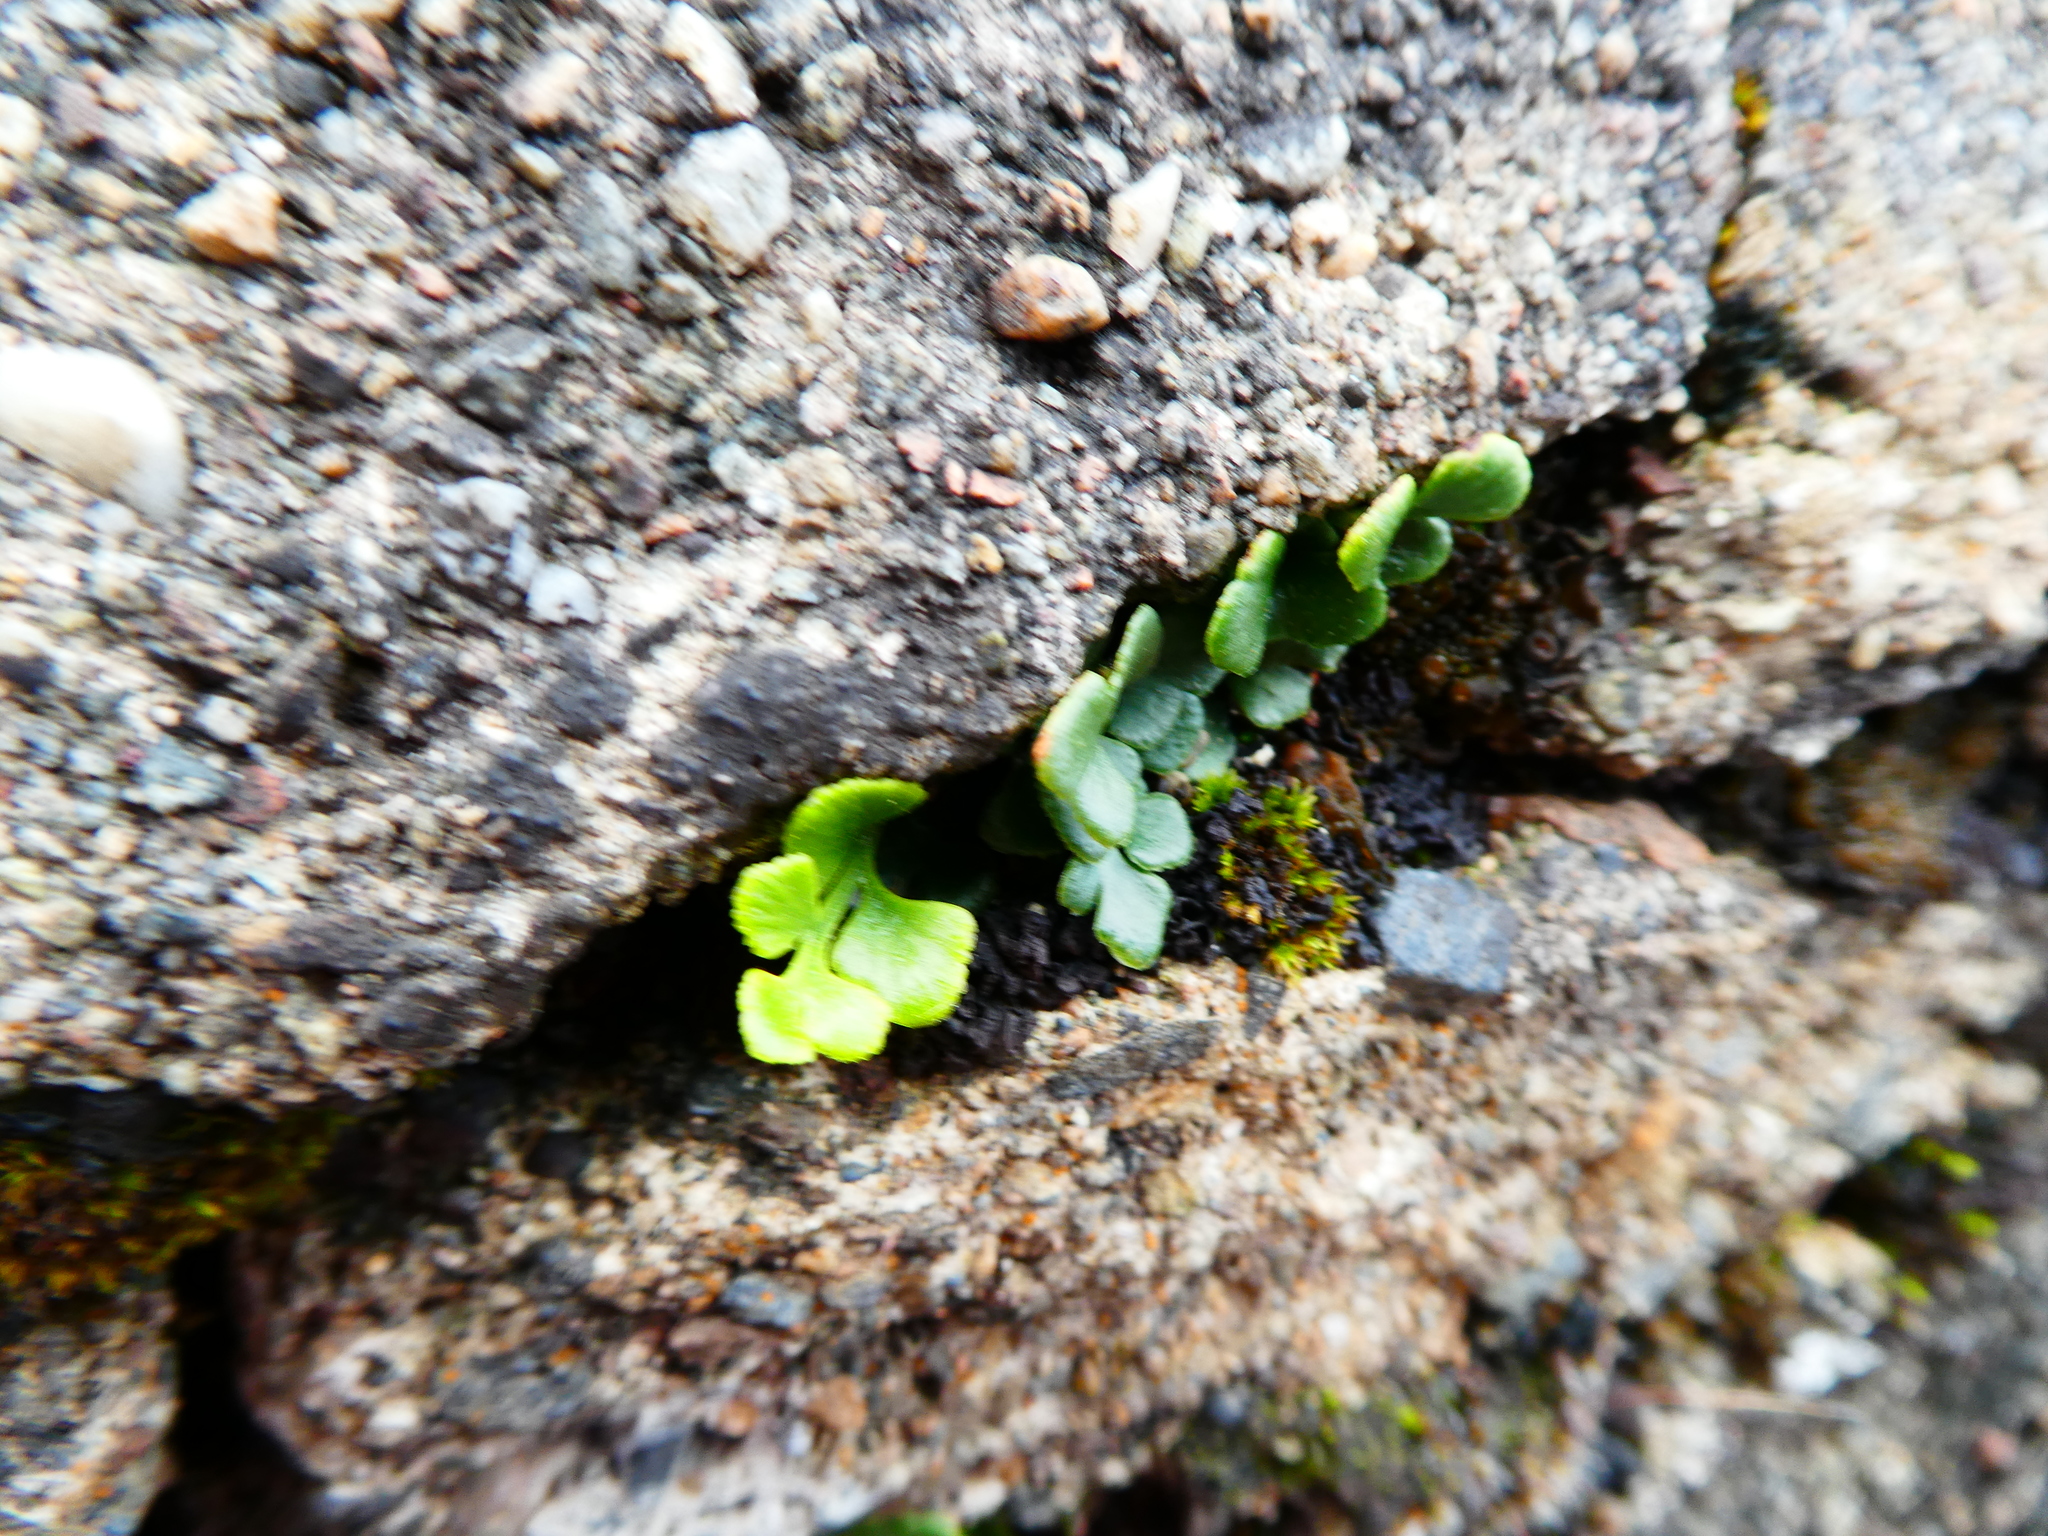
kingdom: Plantae
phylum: Tracheophyta
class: Polypodiopsida
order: Polypodiales
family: Aspleniaceae
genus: Asplenium
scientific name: Asplenium trichomanes
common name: Maidenhair spleenwort
